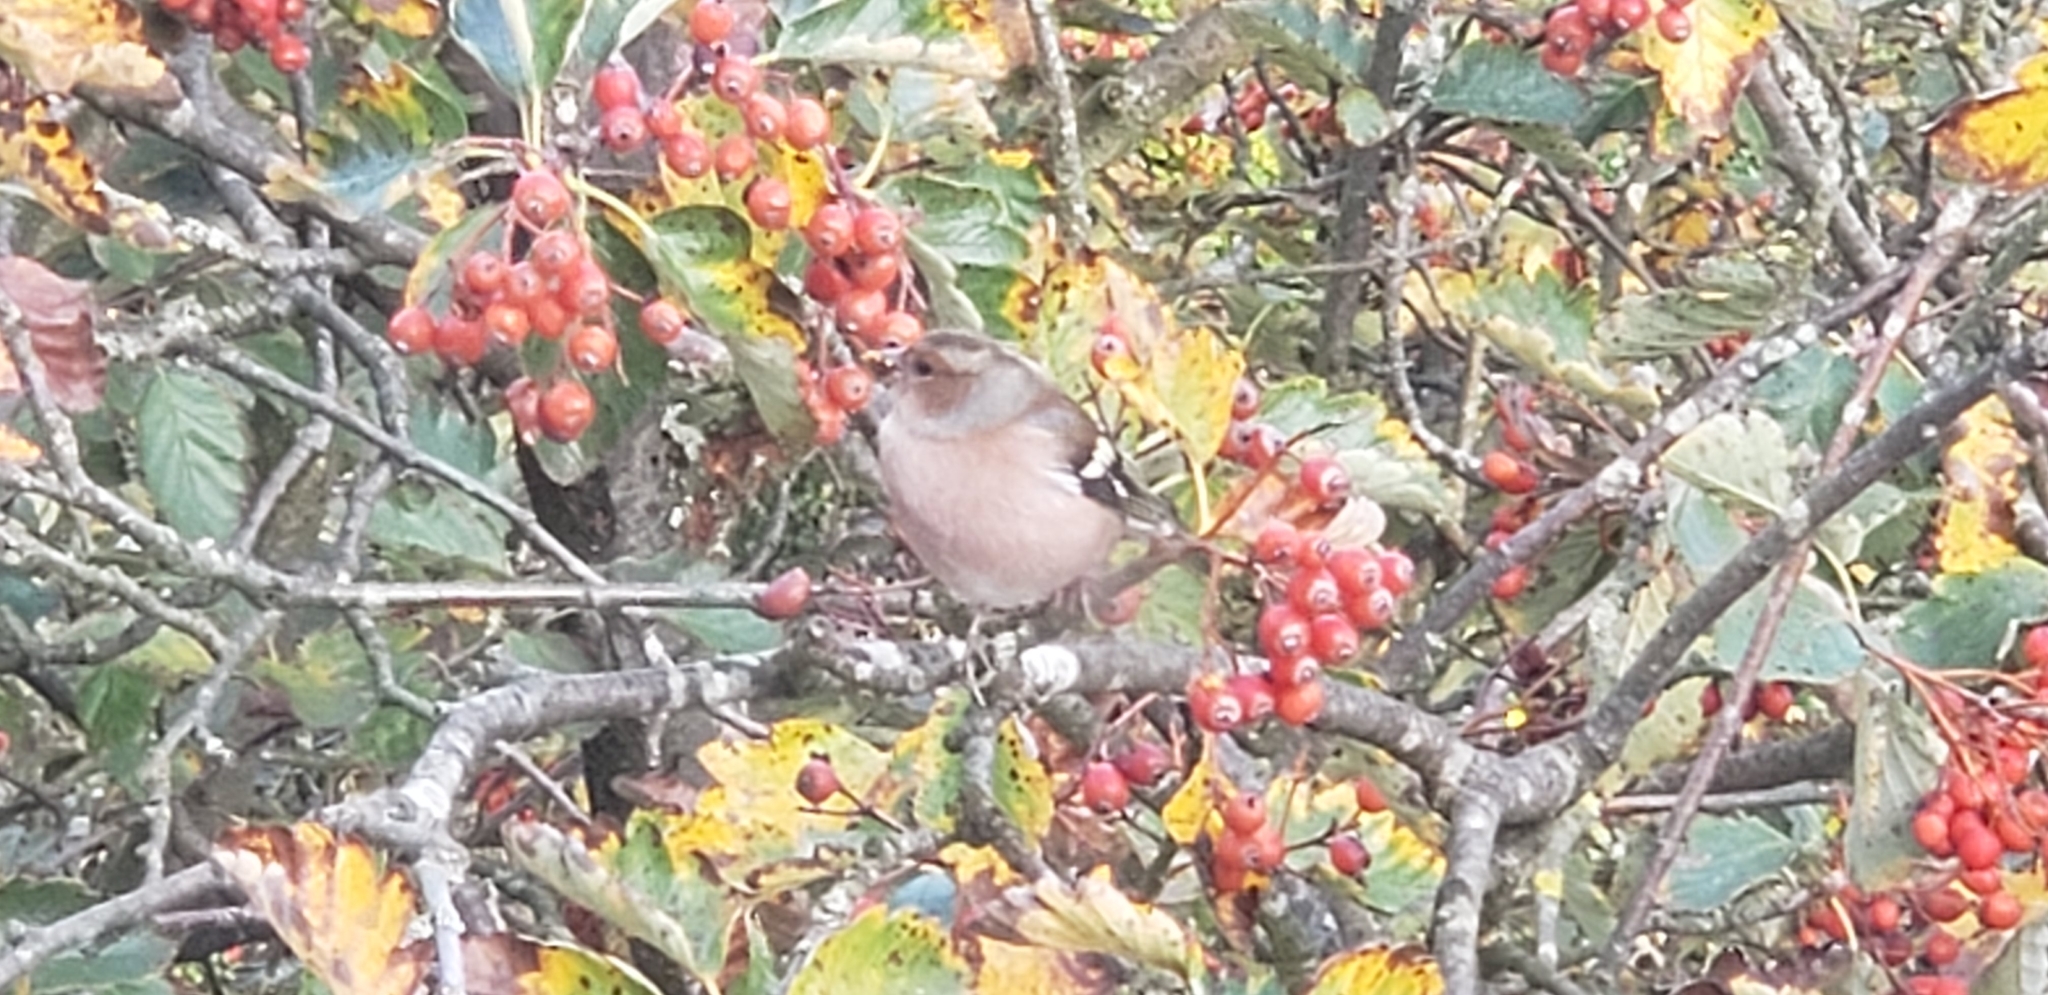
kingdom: Animalia
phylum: Chordata
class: Aves
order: Passeriformes
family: Fringillidae
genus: Fringilla
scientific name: Fringilla coelebs
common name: Common chaffinch
